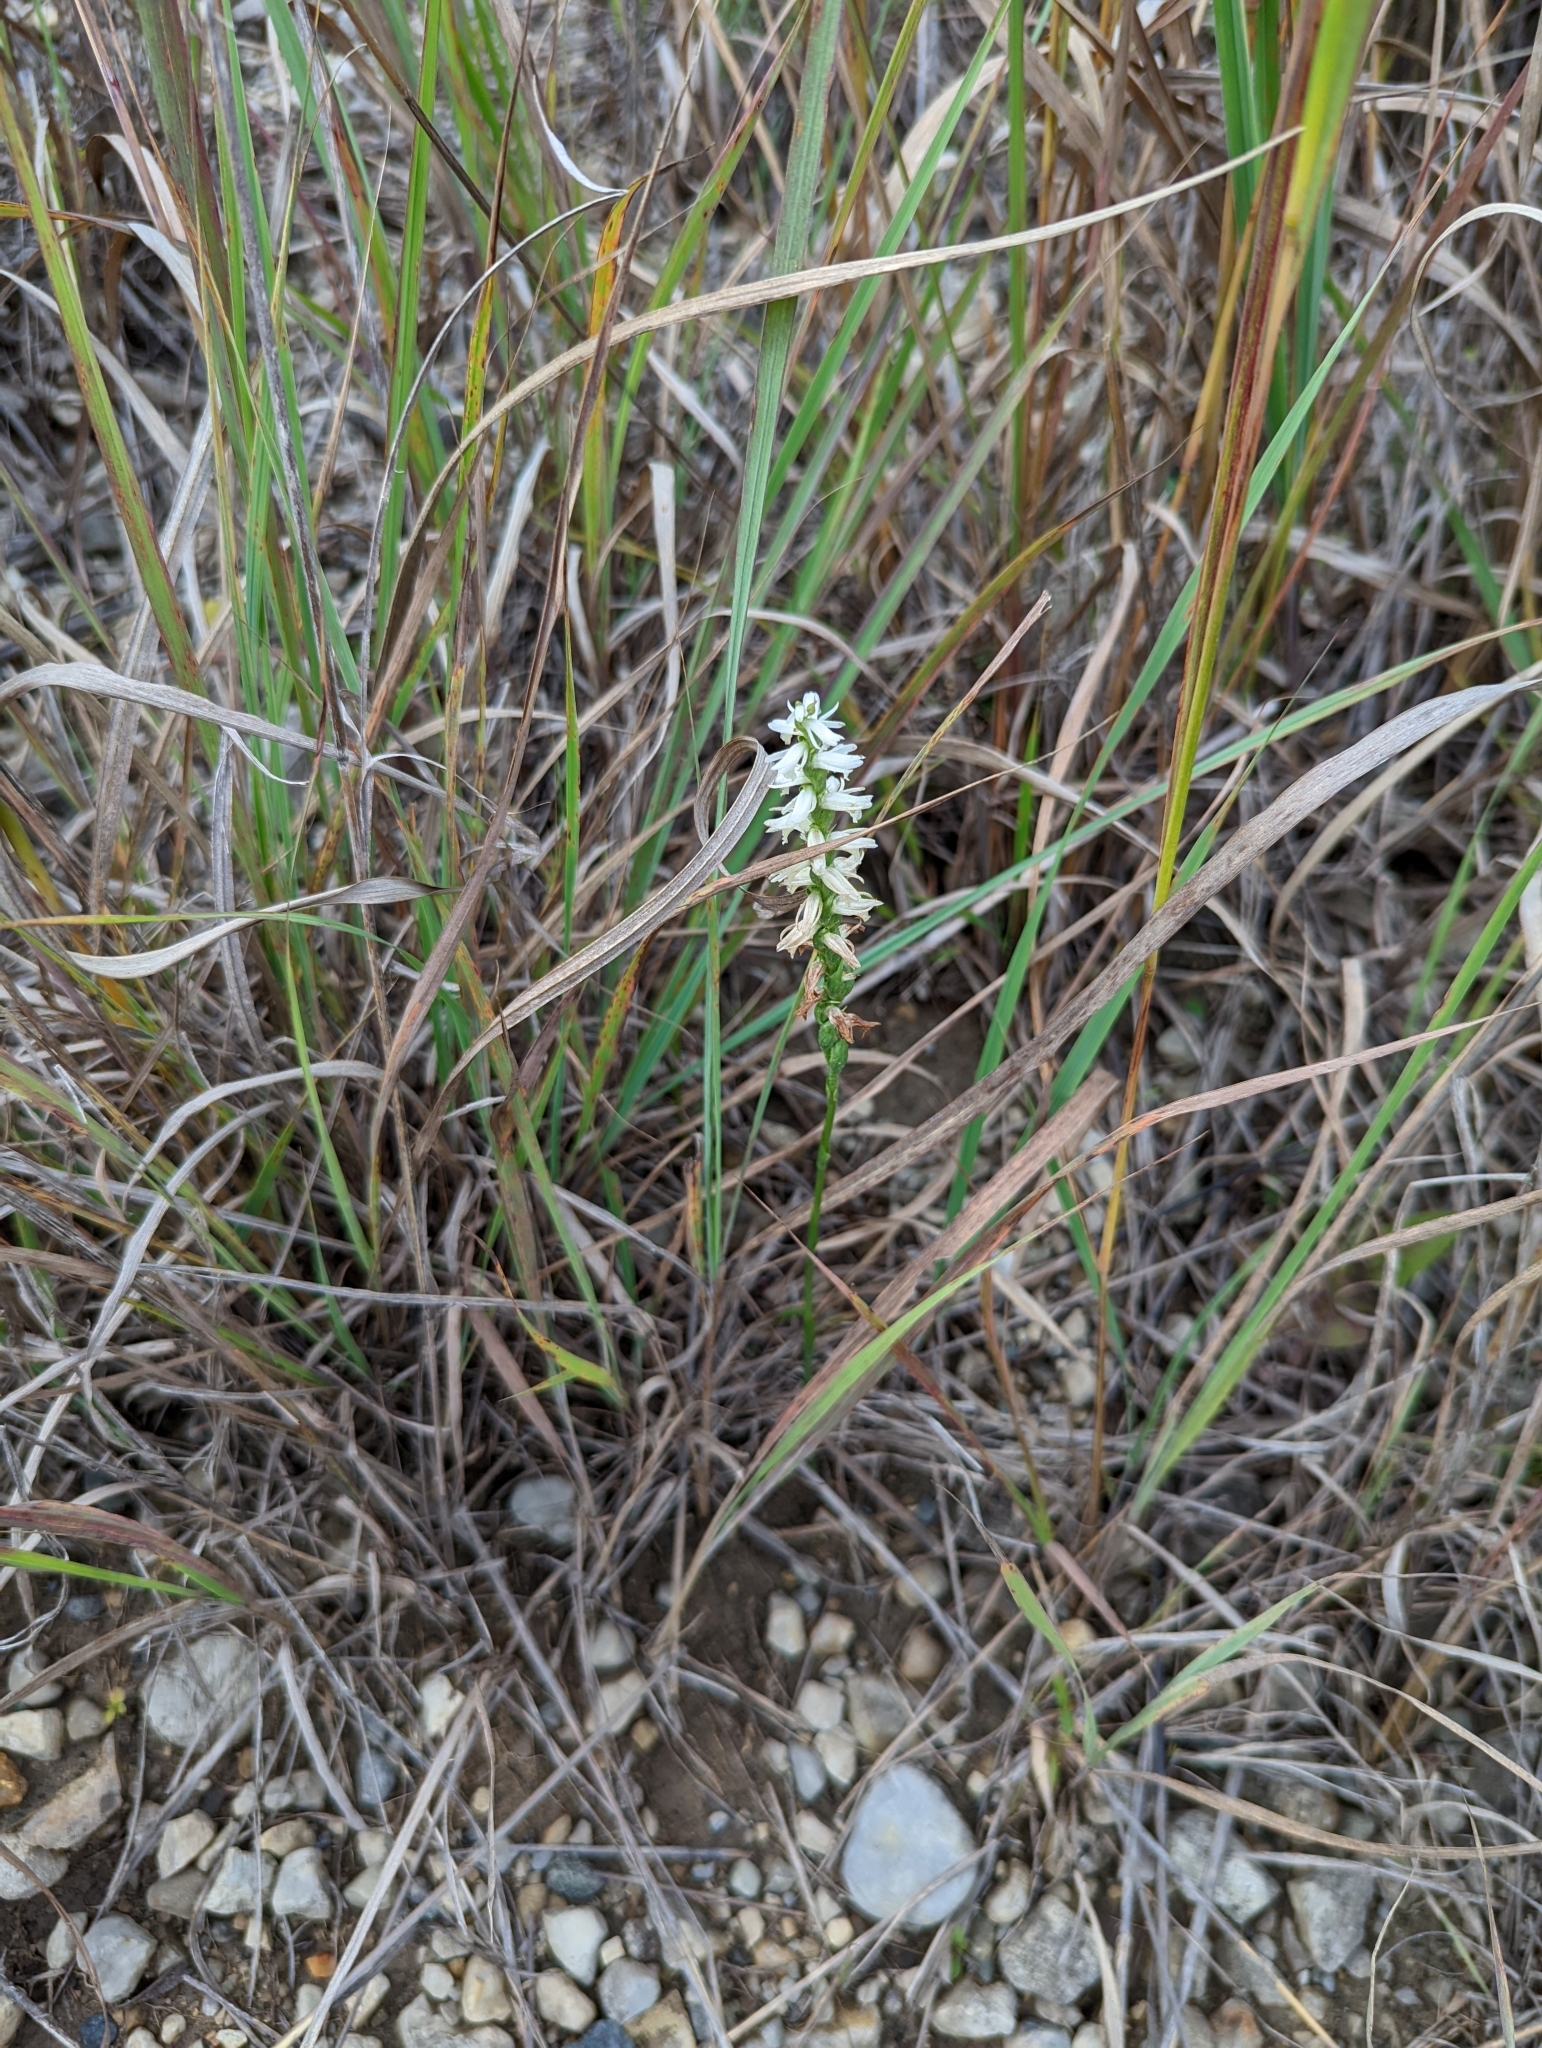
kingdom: Plantae
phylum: Tracheophyta
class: Liliopsida
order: Asparagales
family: Orchidaceae
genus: Spiranthes
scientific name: Spiranthes magnicamporum
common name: Great plains ladies'-tresses
